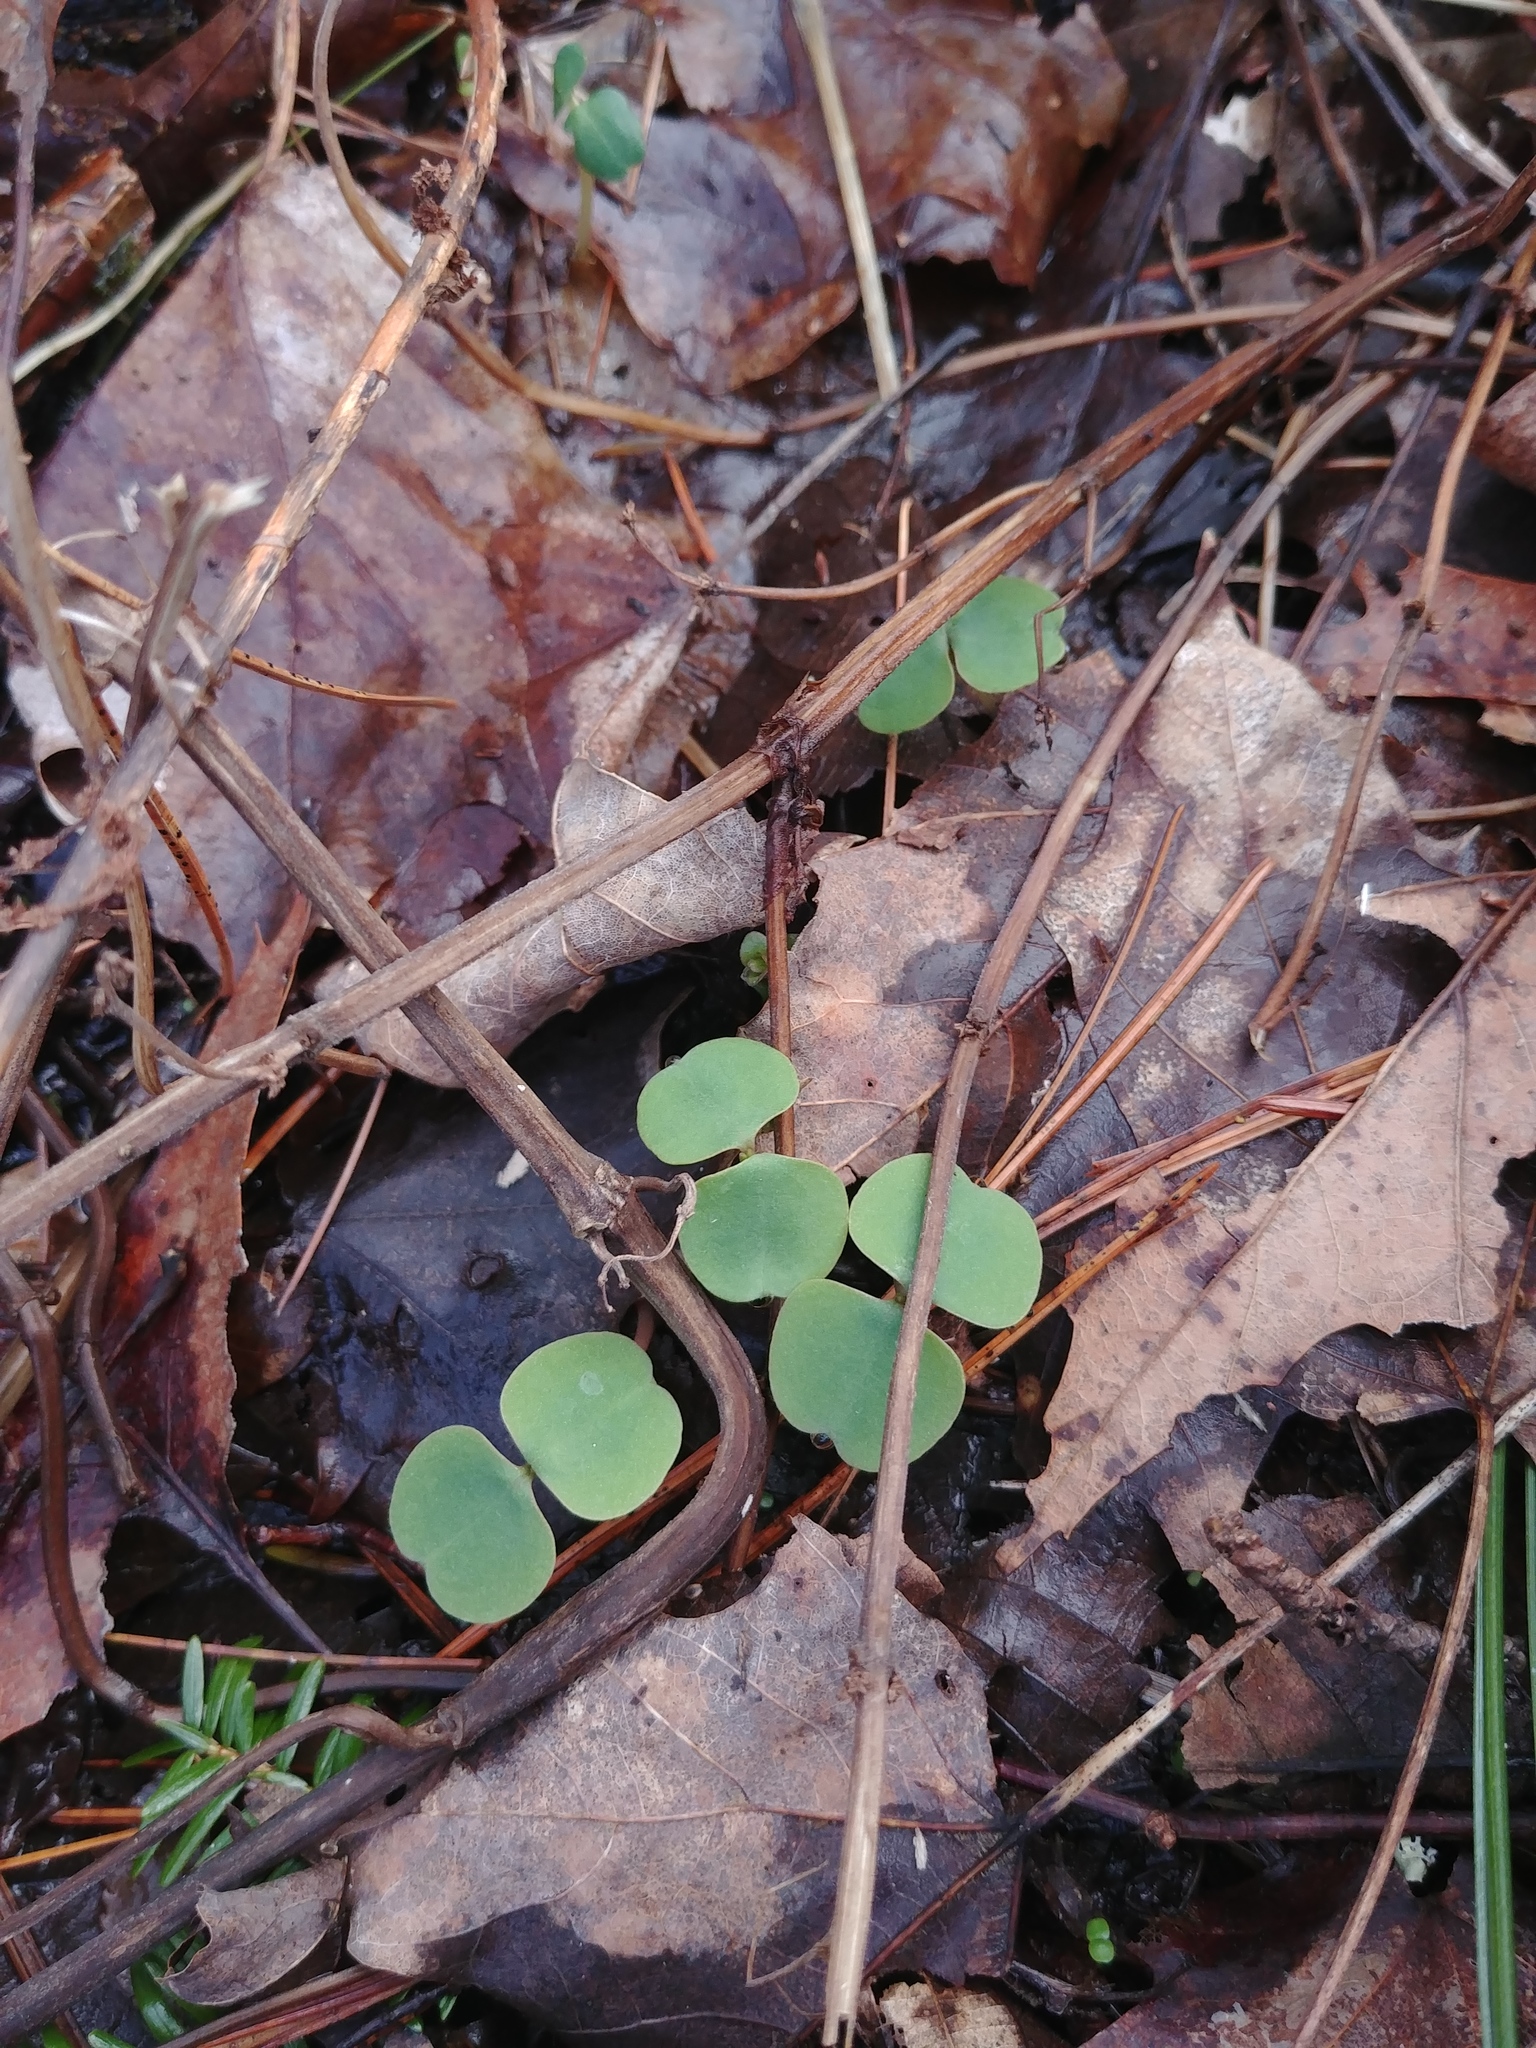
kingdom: Plantae
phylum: Tracheophyta
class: Magnoliopsida
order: Ericales
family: Balsaminaceae
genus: Impatiens
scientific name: Impatiens
